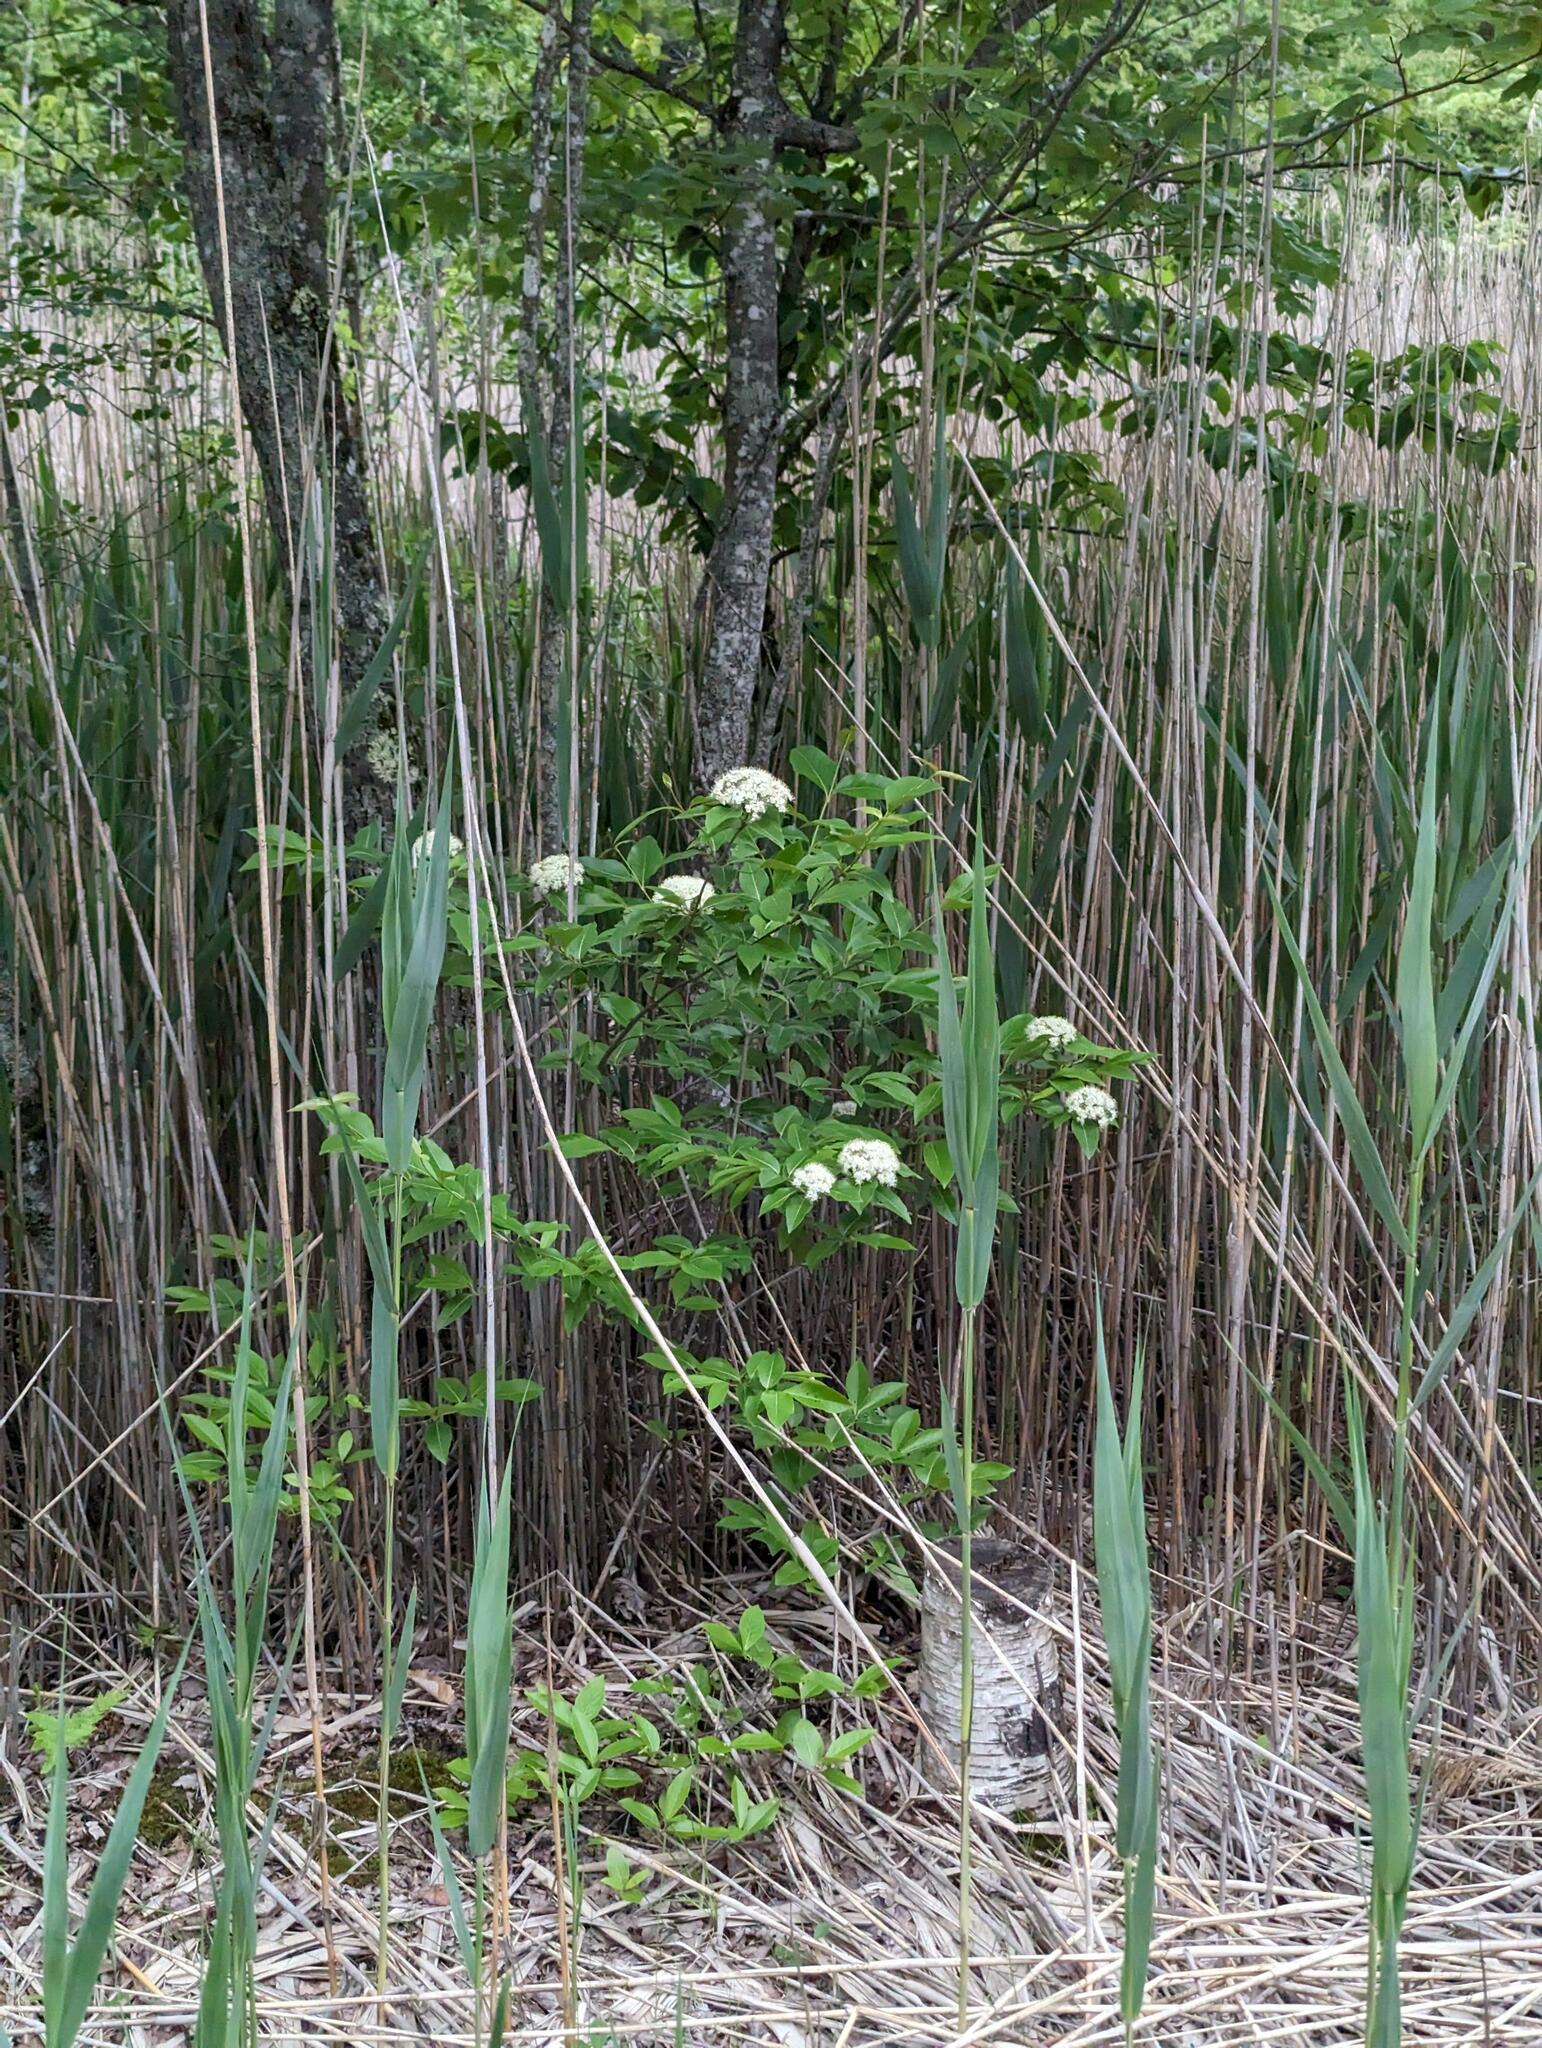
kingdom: Plantae
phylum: Tracheophyta
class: Magnoliopsida
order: Dipsacales
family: Viburnaceae
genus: Viburnum
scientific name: Viburnum cassinoides
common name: Swamp haw
